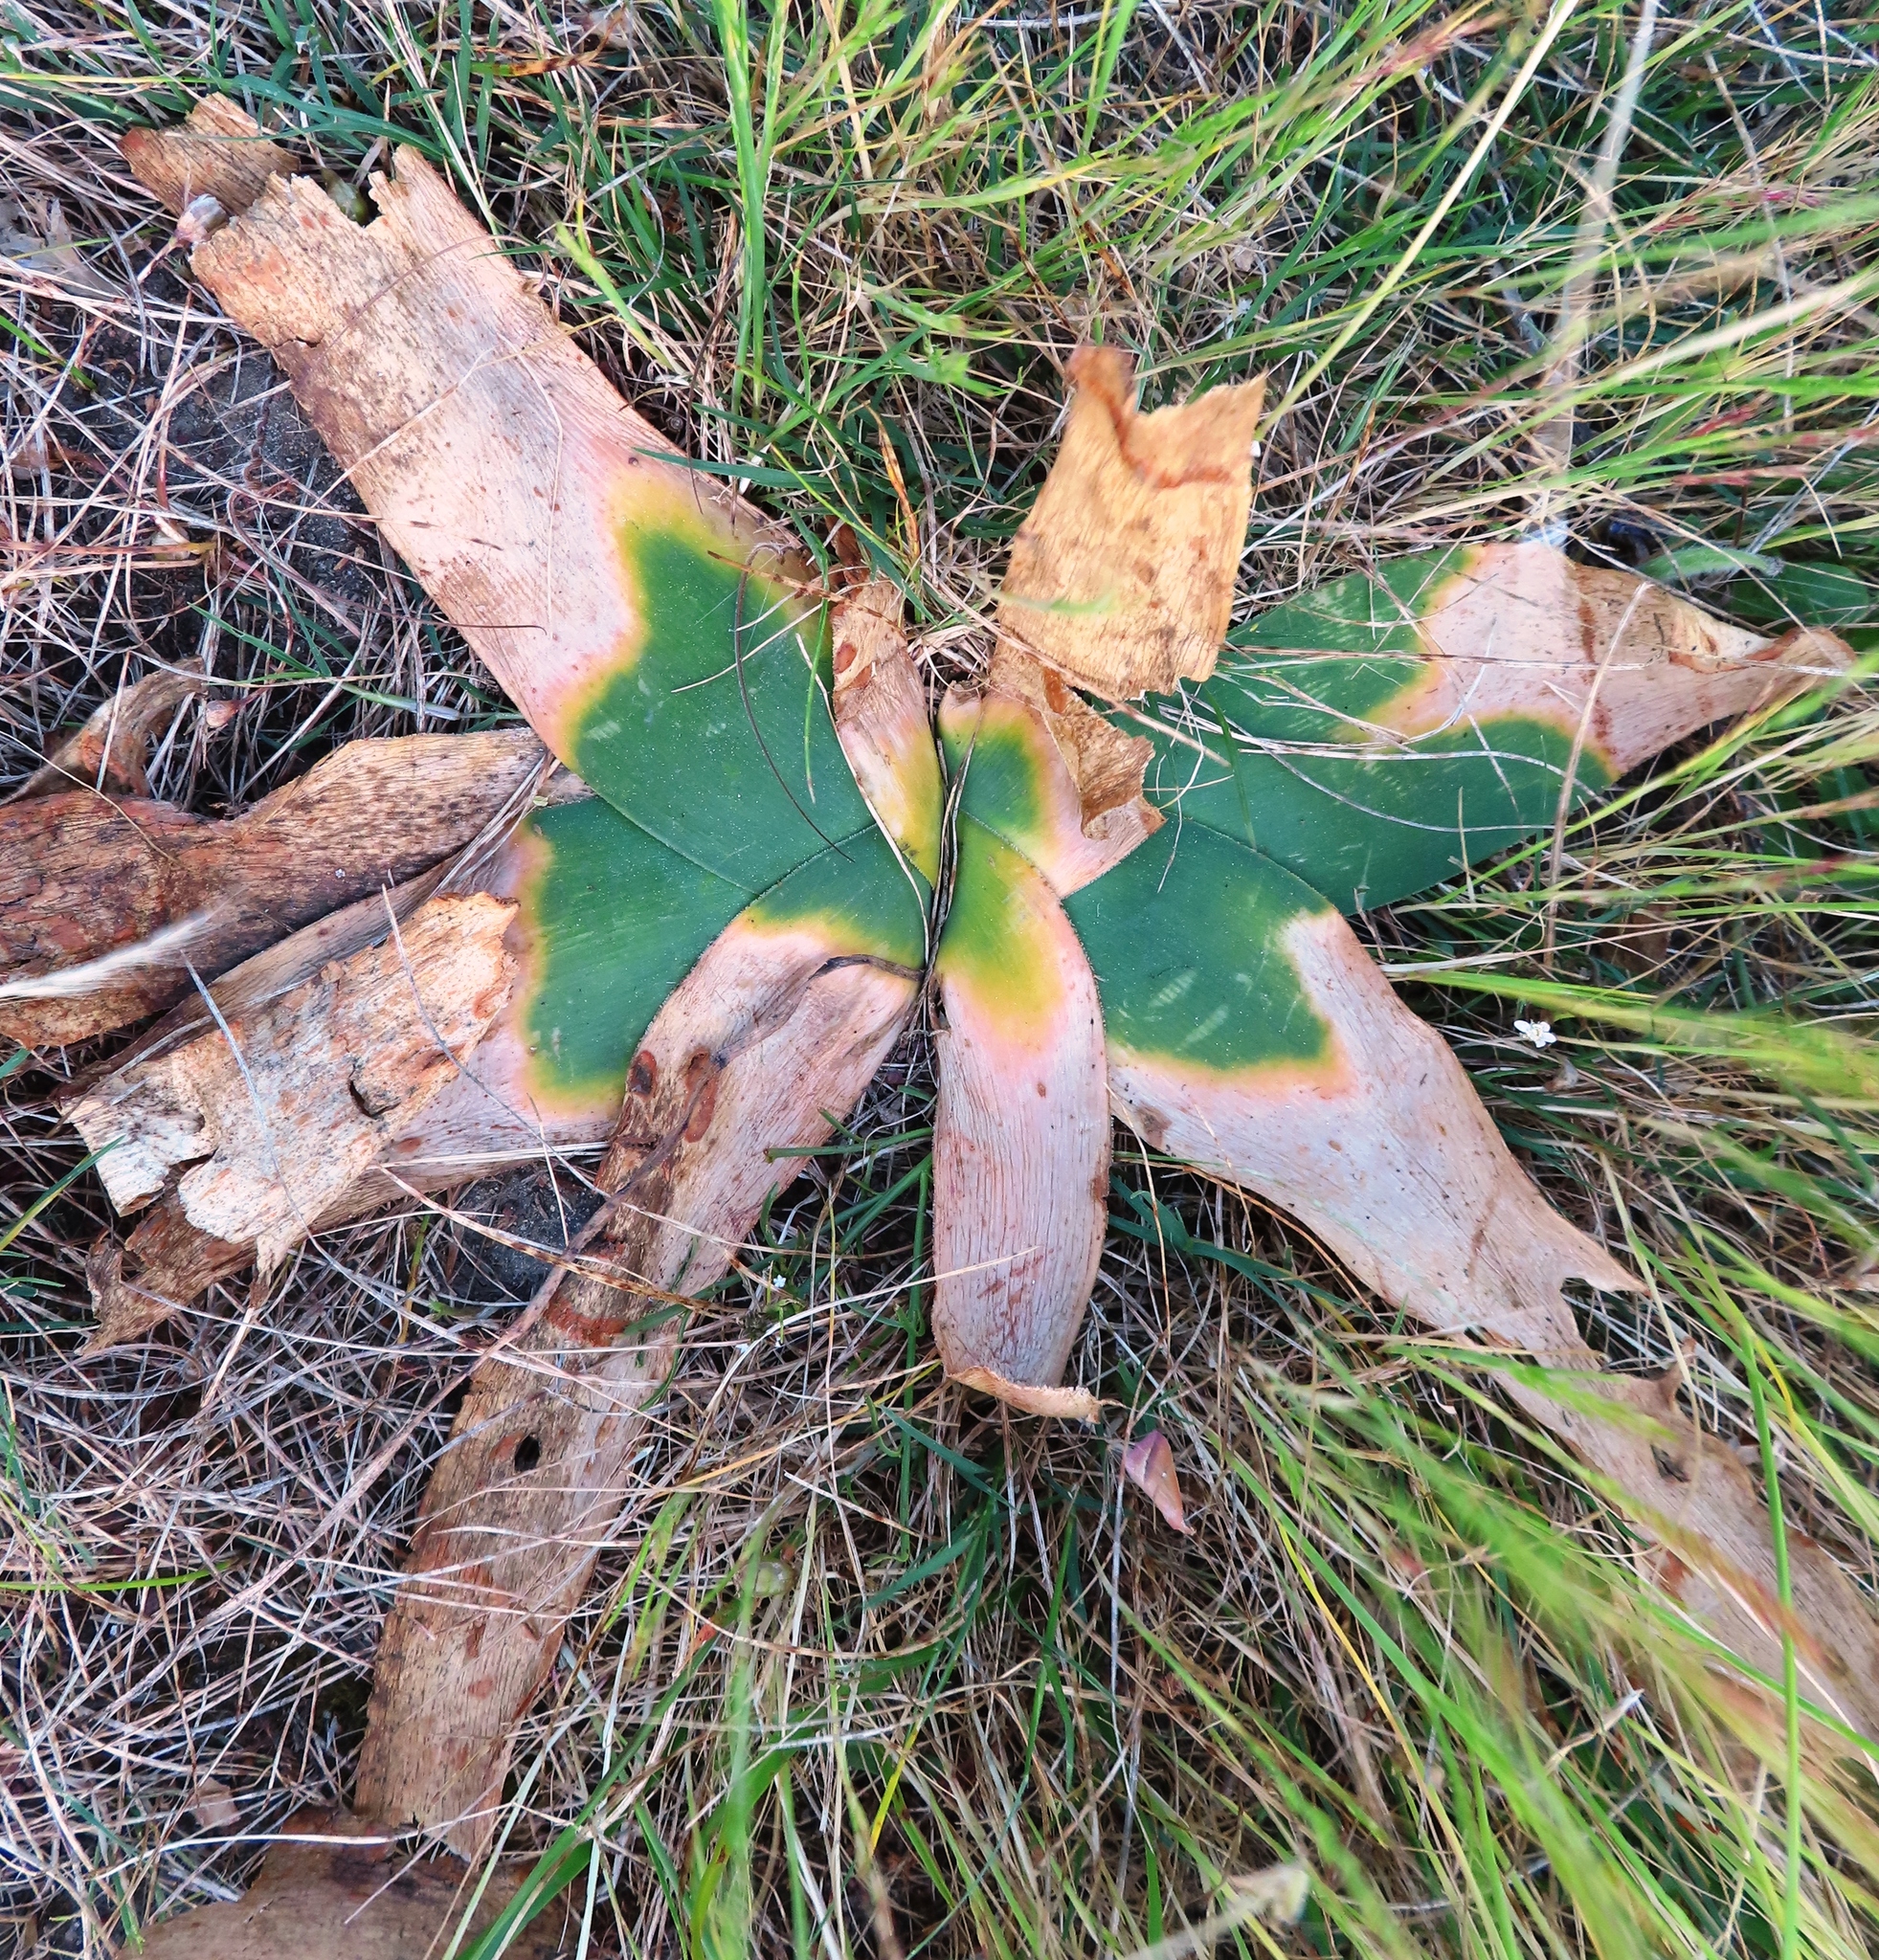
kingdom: Plantae
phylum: Tracheophyta
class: Liliopsida
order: Asparagales
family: Amaryllidaceae
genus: Ammocharis
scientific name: Ammocharis longifolia
